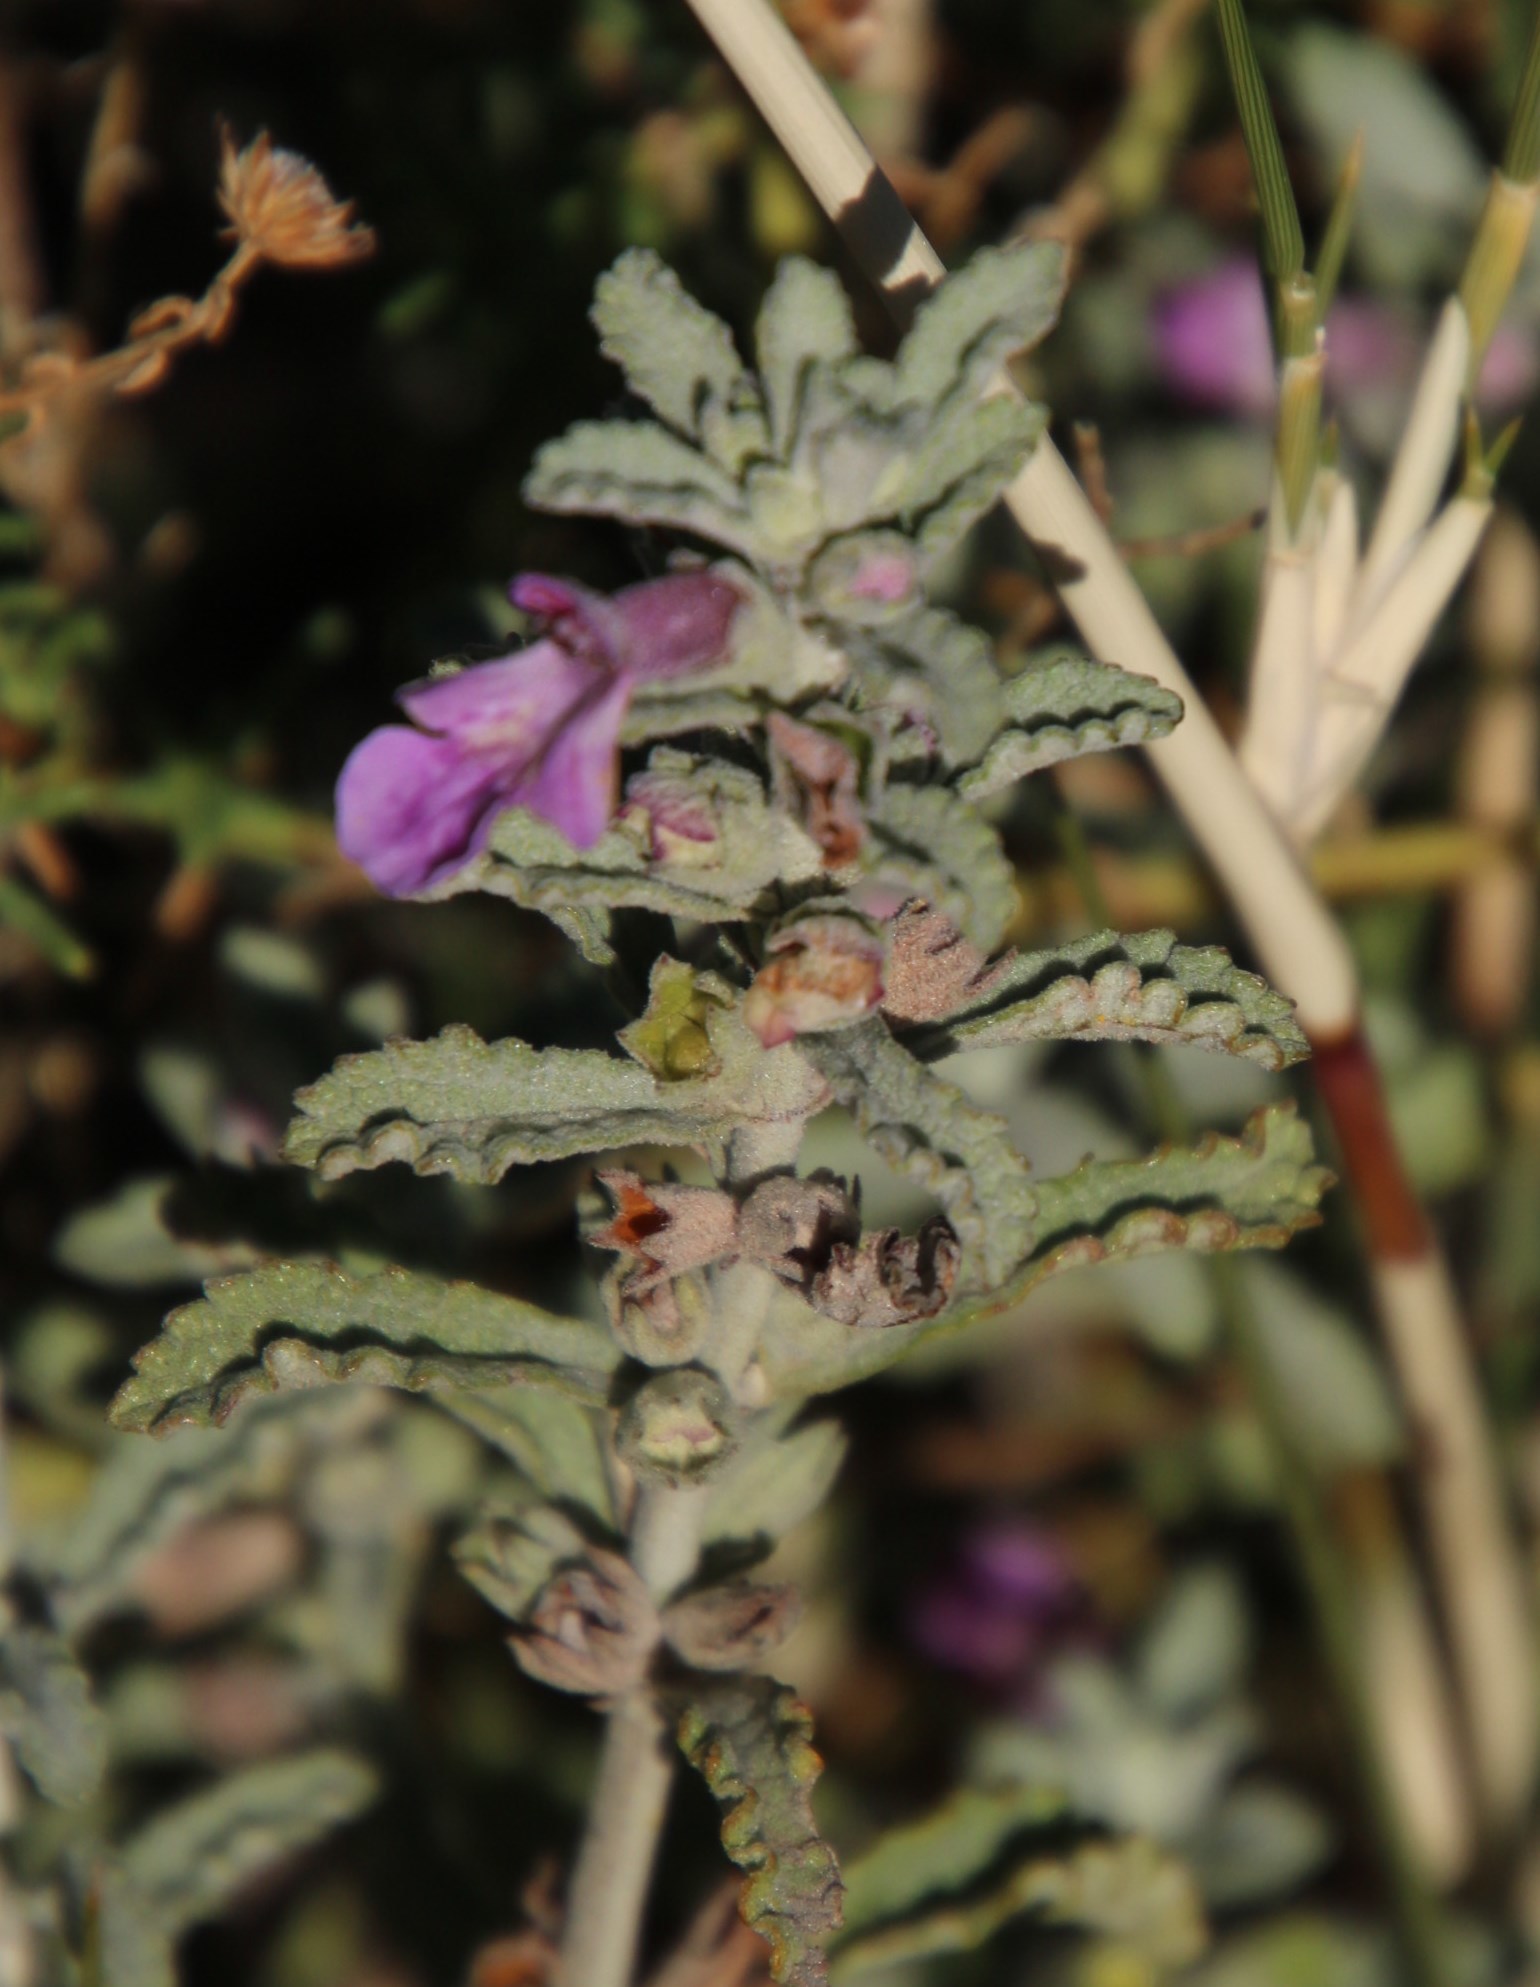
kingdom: Plantae
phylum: Tracheophyta
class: Magnoliopsida
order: Lamiales
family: Lamiaceae
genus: Stachys
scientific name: Stachys cuneata
